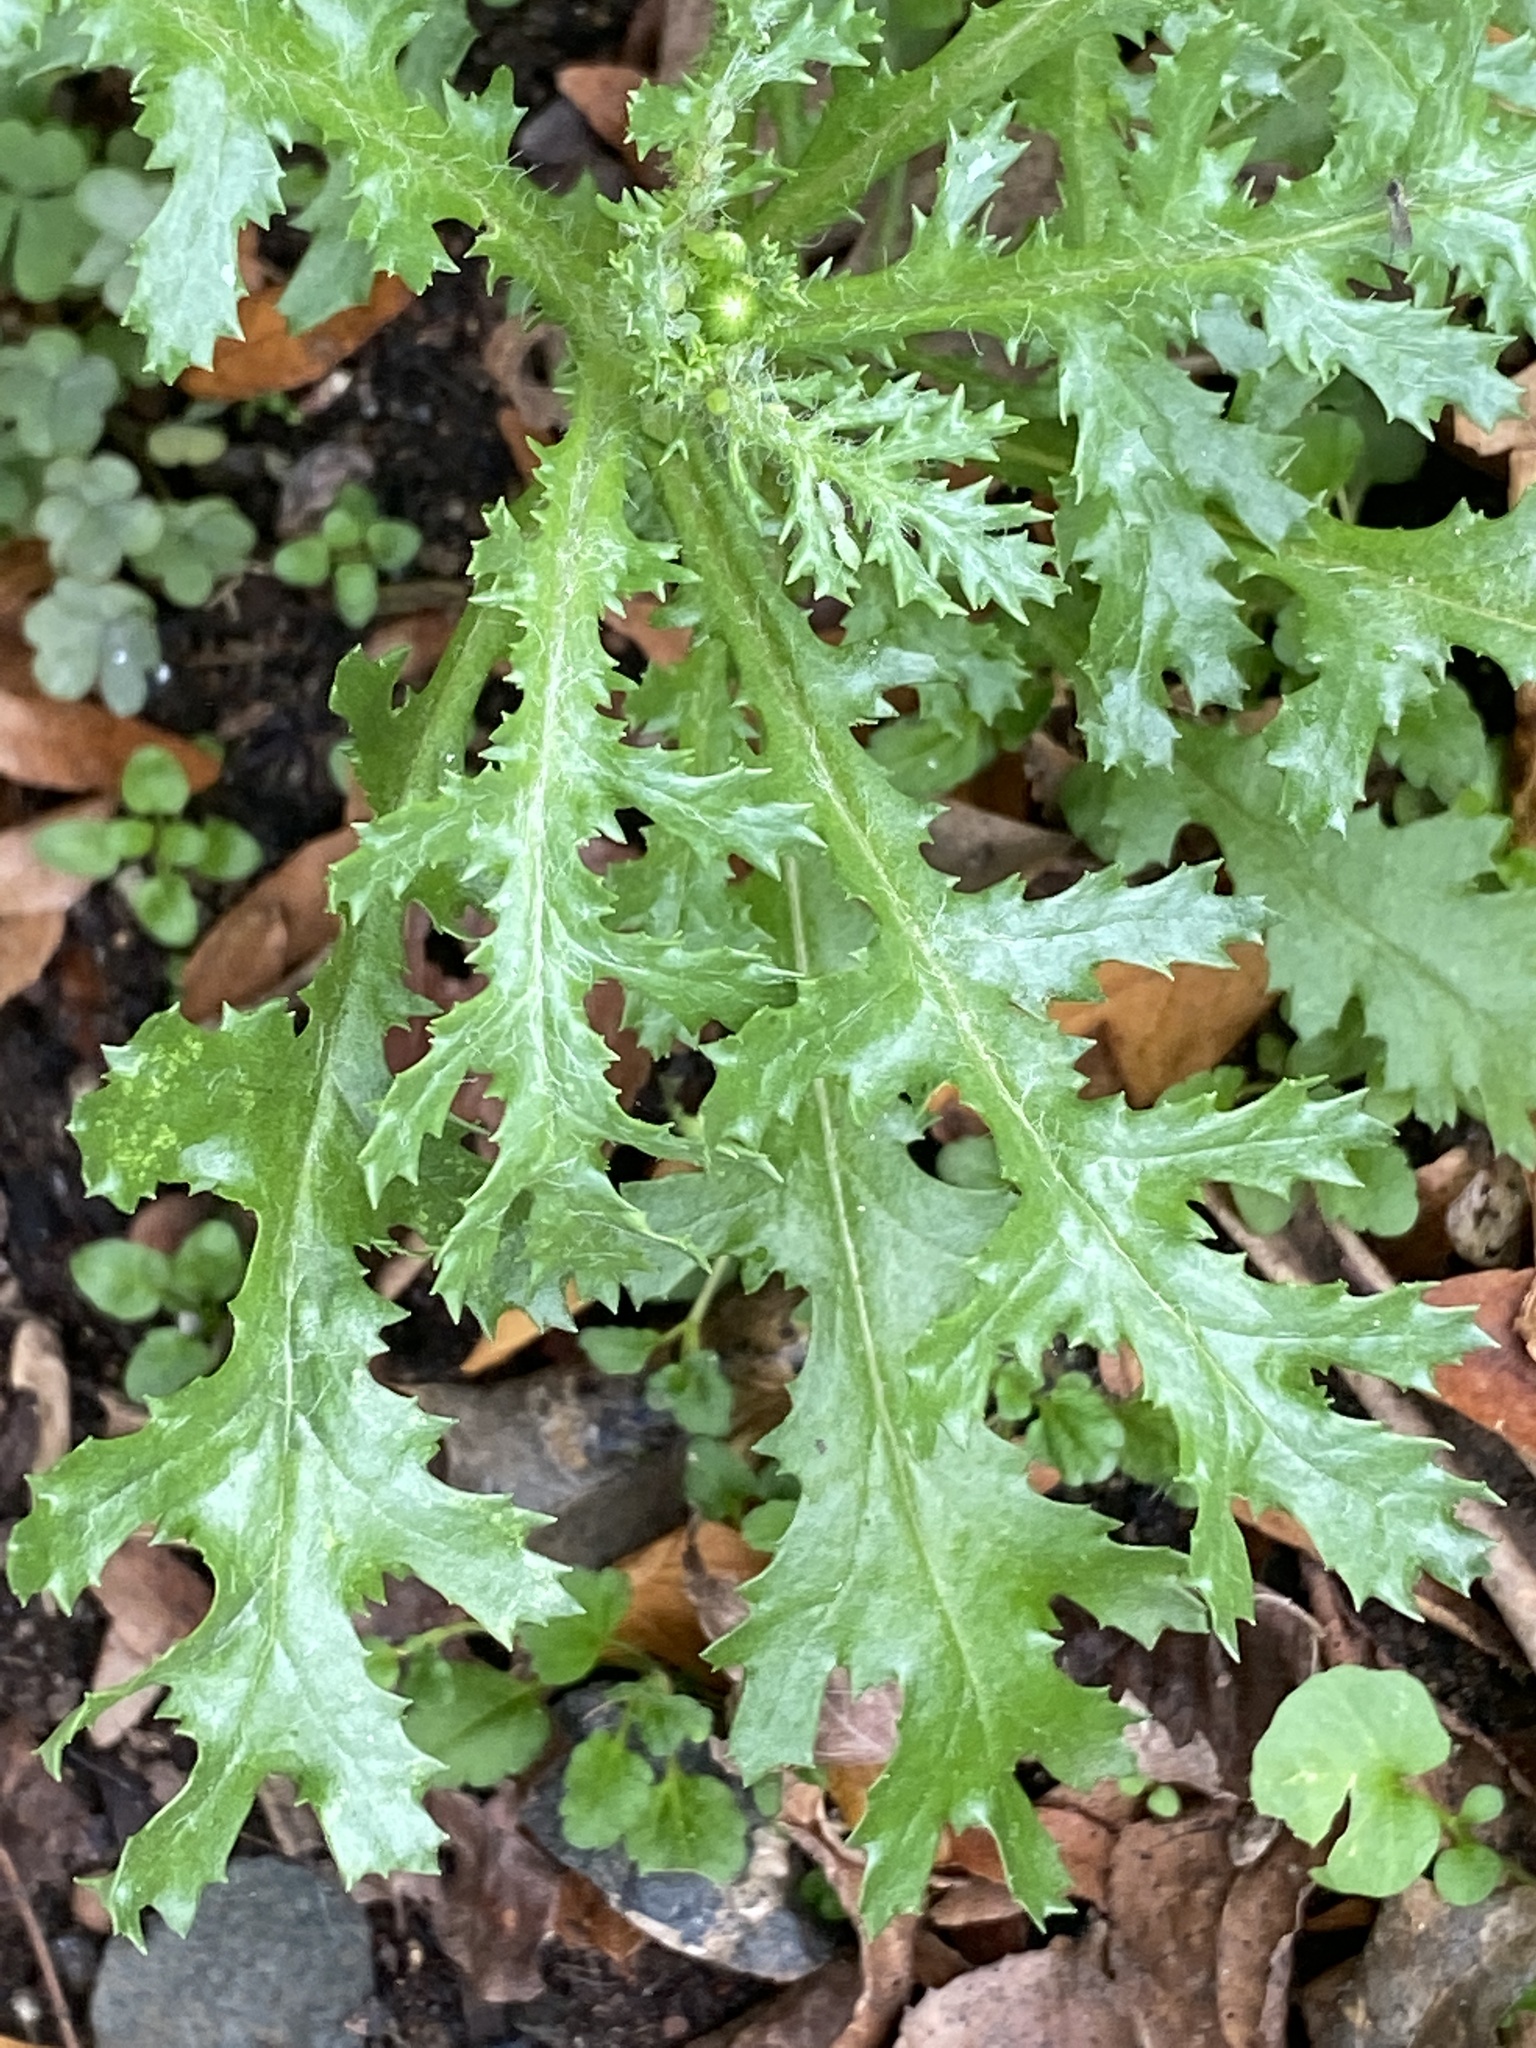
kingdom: Plantae
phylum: Tracheophyta
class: Magnoliopsida
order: Asterales
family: Asteraceae
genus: Senecio
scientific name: Senecio vulgaris
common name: Old-man-in-the-spring
